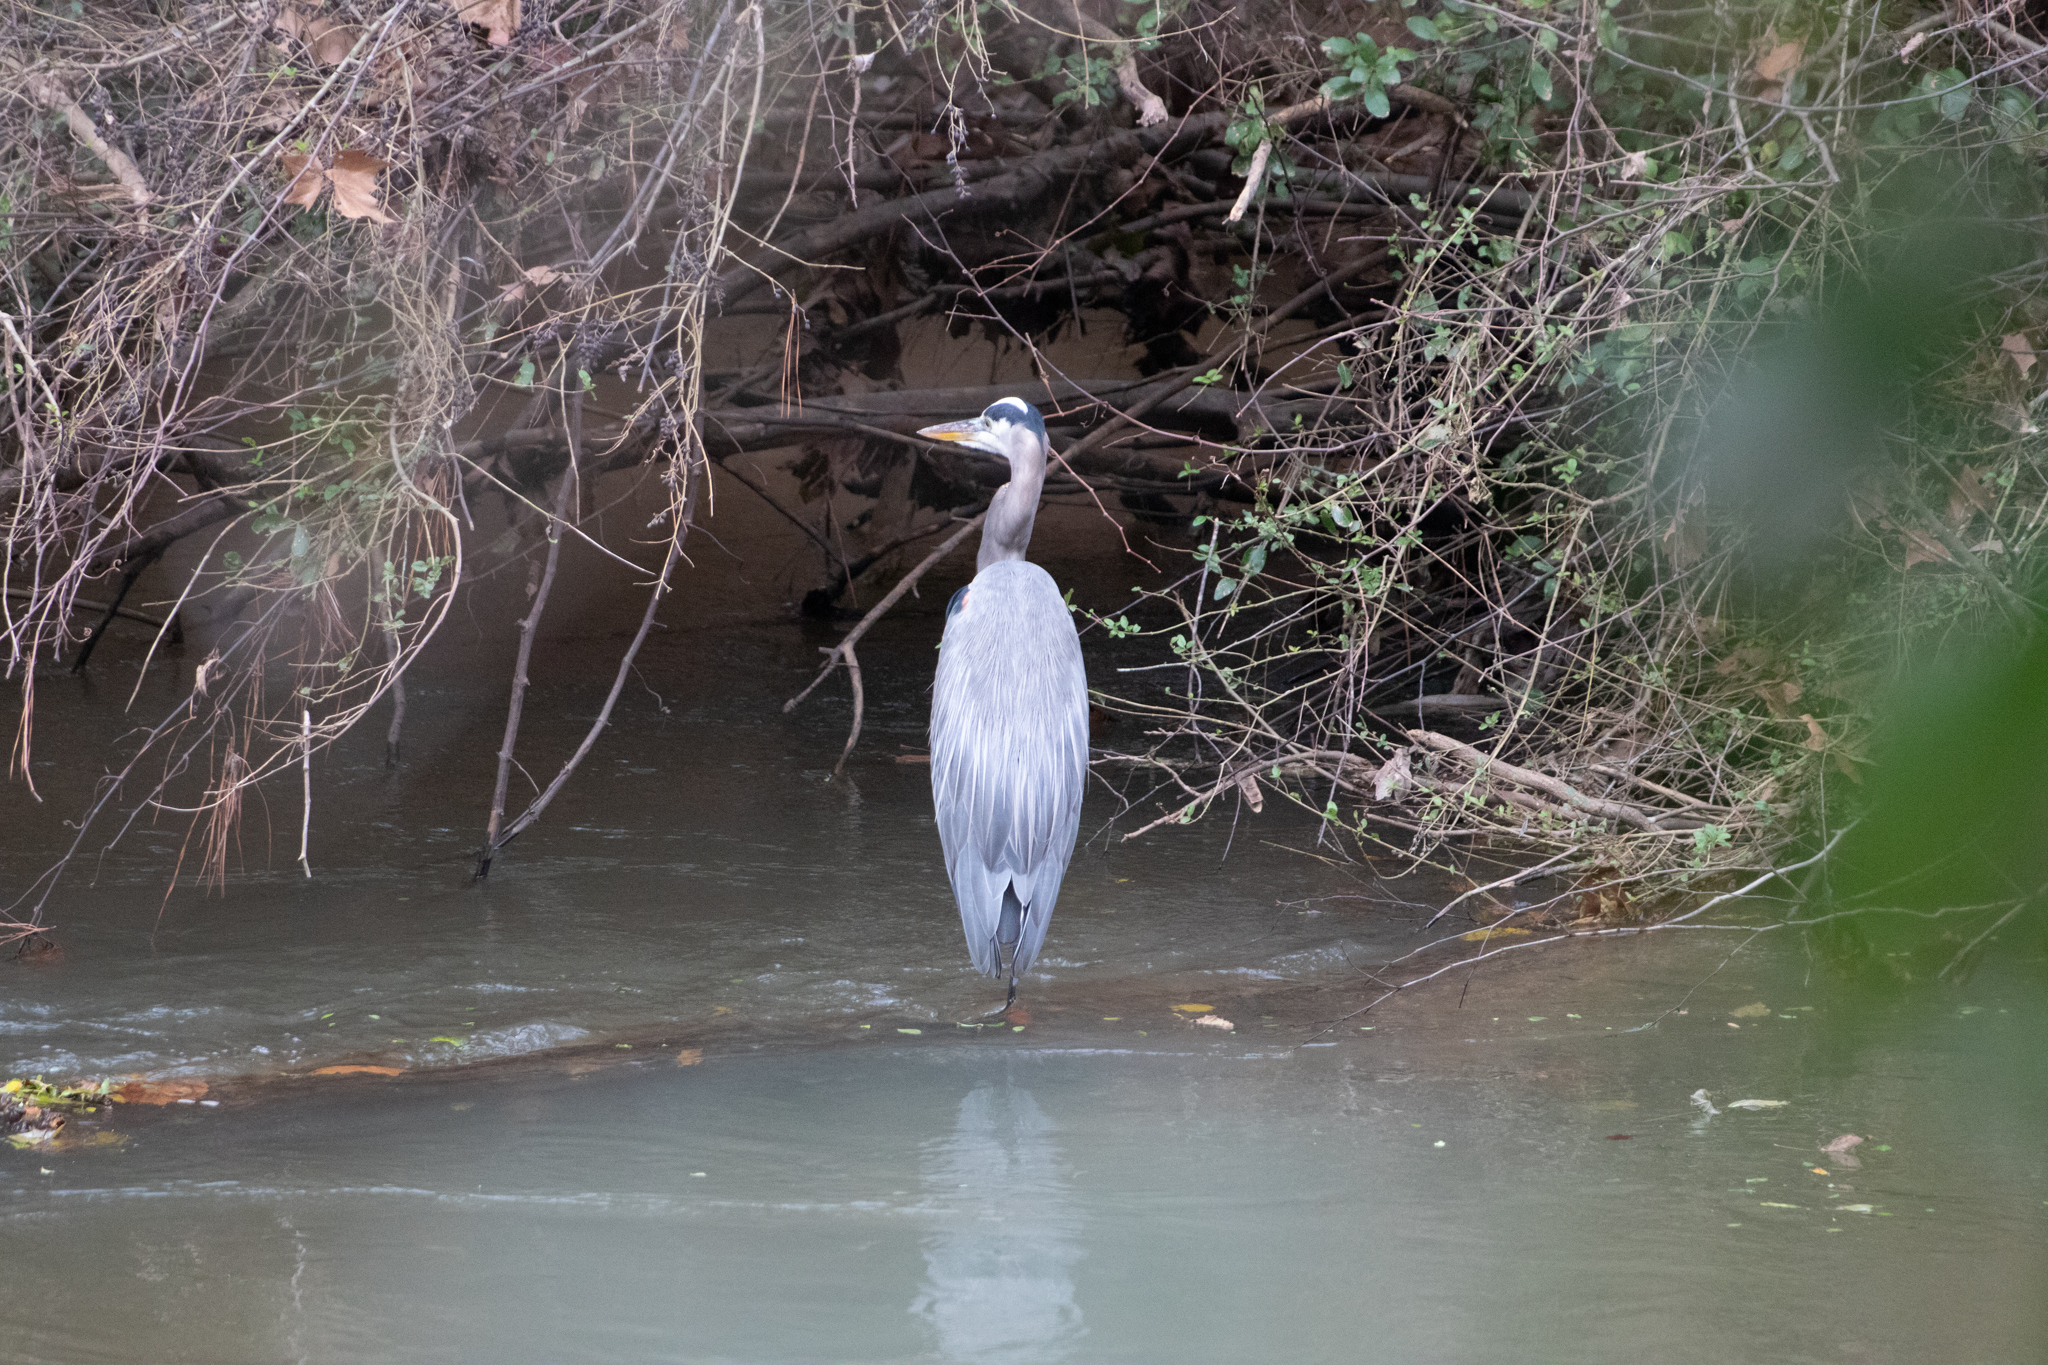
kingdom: Animalia
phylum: Chordata
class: Aves
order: Pelecaniformes
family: Ardeidae
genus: Ardea
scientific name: Ardea herodias
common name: Great blue heron
